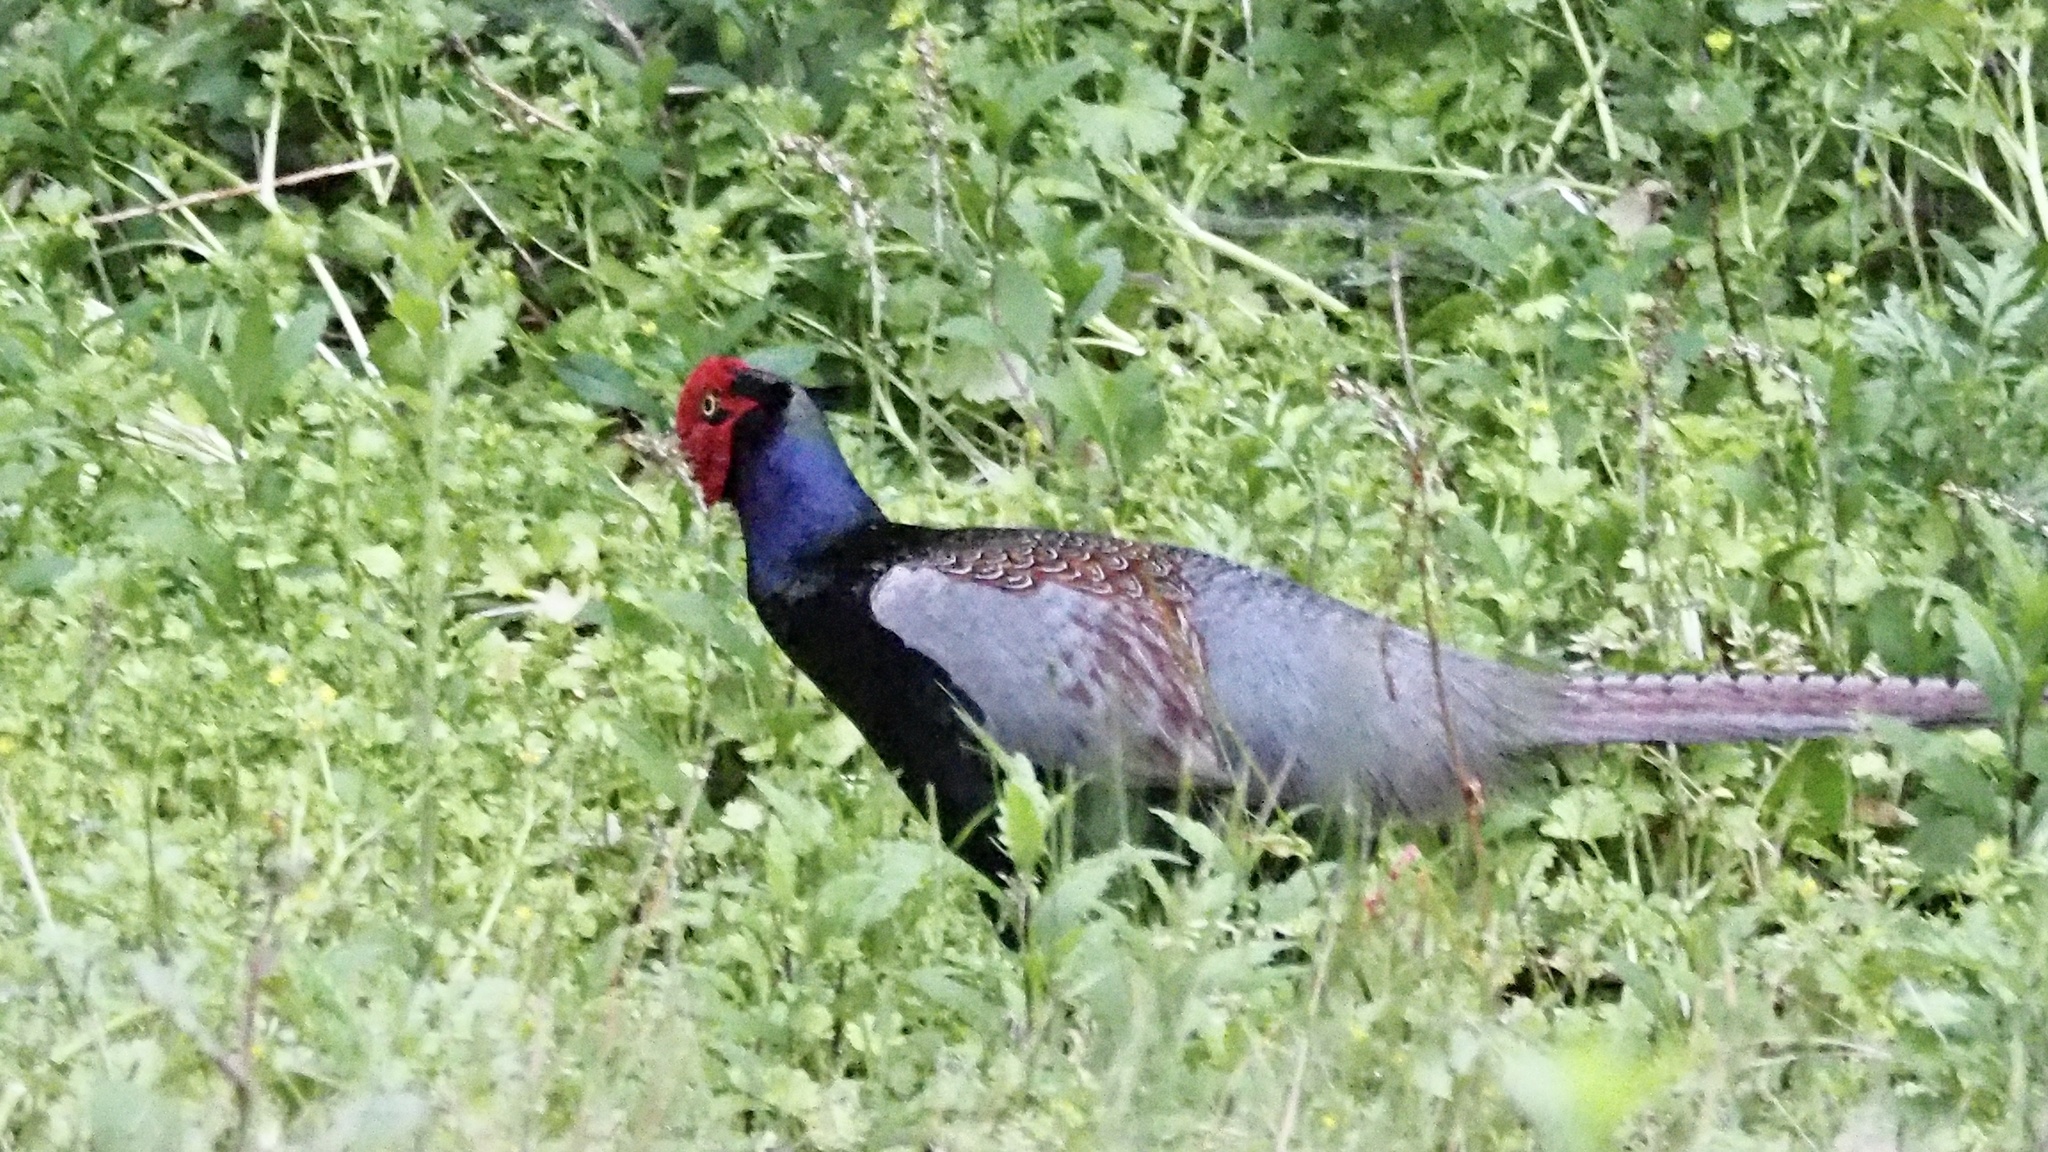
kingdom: Animalia
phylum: Chordata
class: Aves
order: Galliformes
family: Phasianidae
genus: Phasianus
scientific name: Phasianus versicolor
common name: Green pheasant
